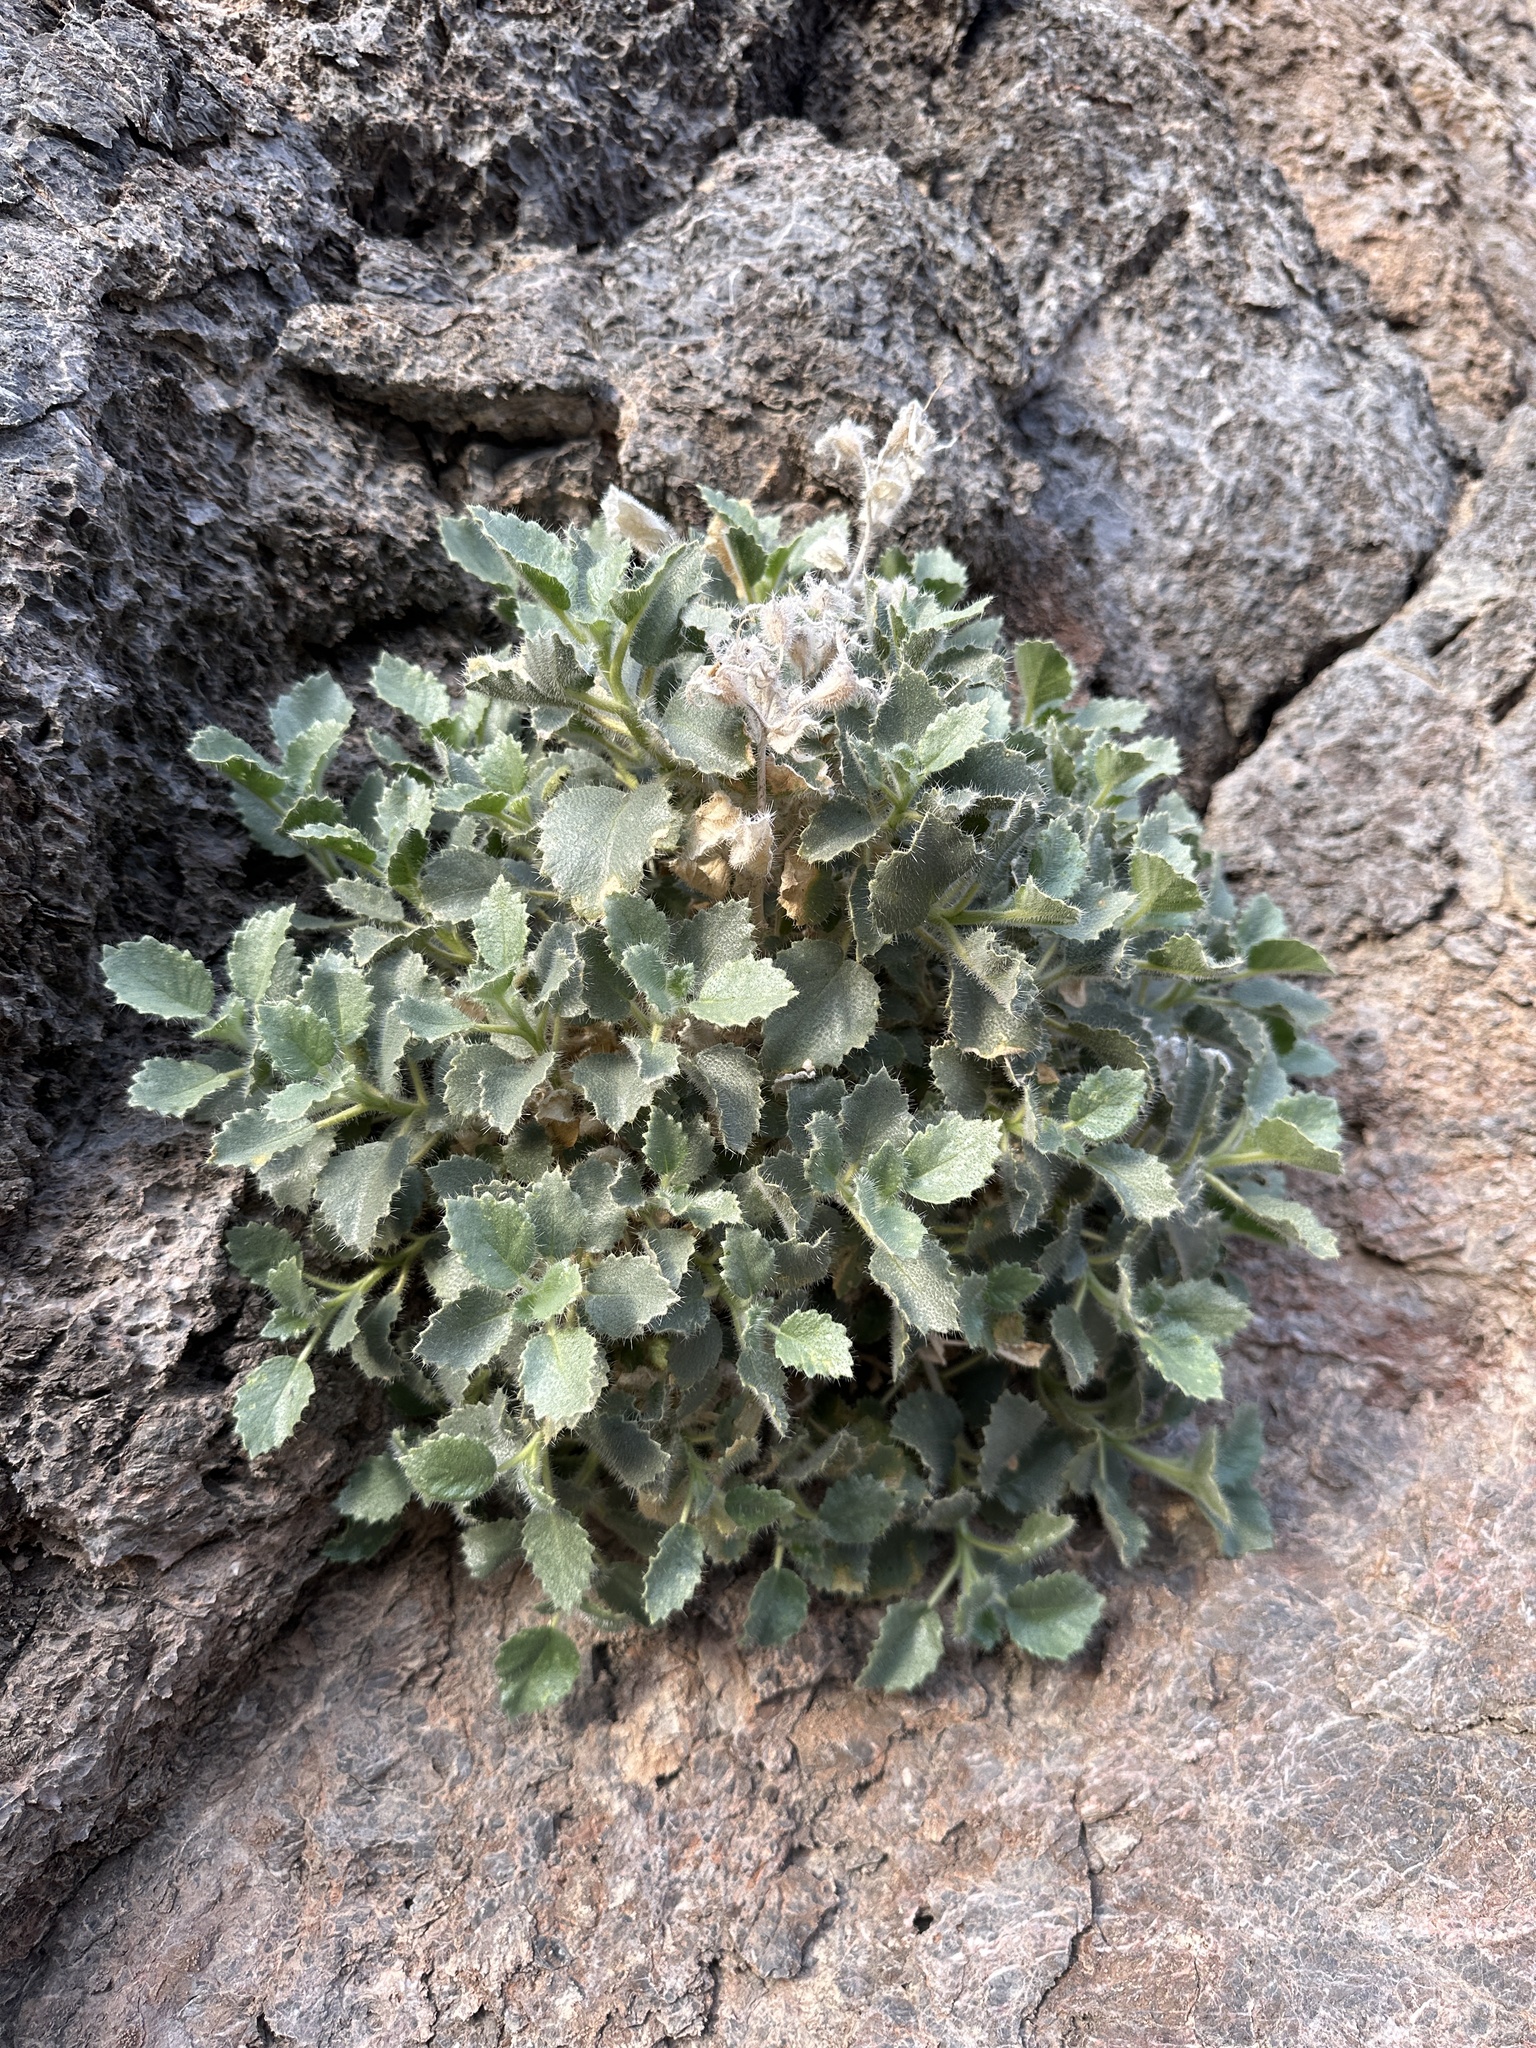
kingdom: Plantae
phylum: Tracheophyta
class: Magnoliopsida
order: Cornales
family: Loasaceae
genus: Eucnide
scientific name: Eucnide urens
